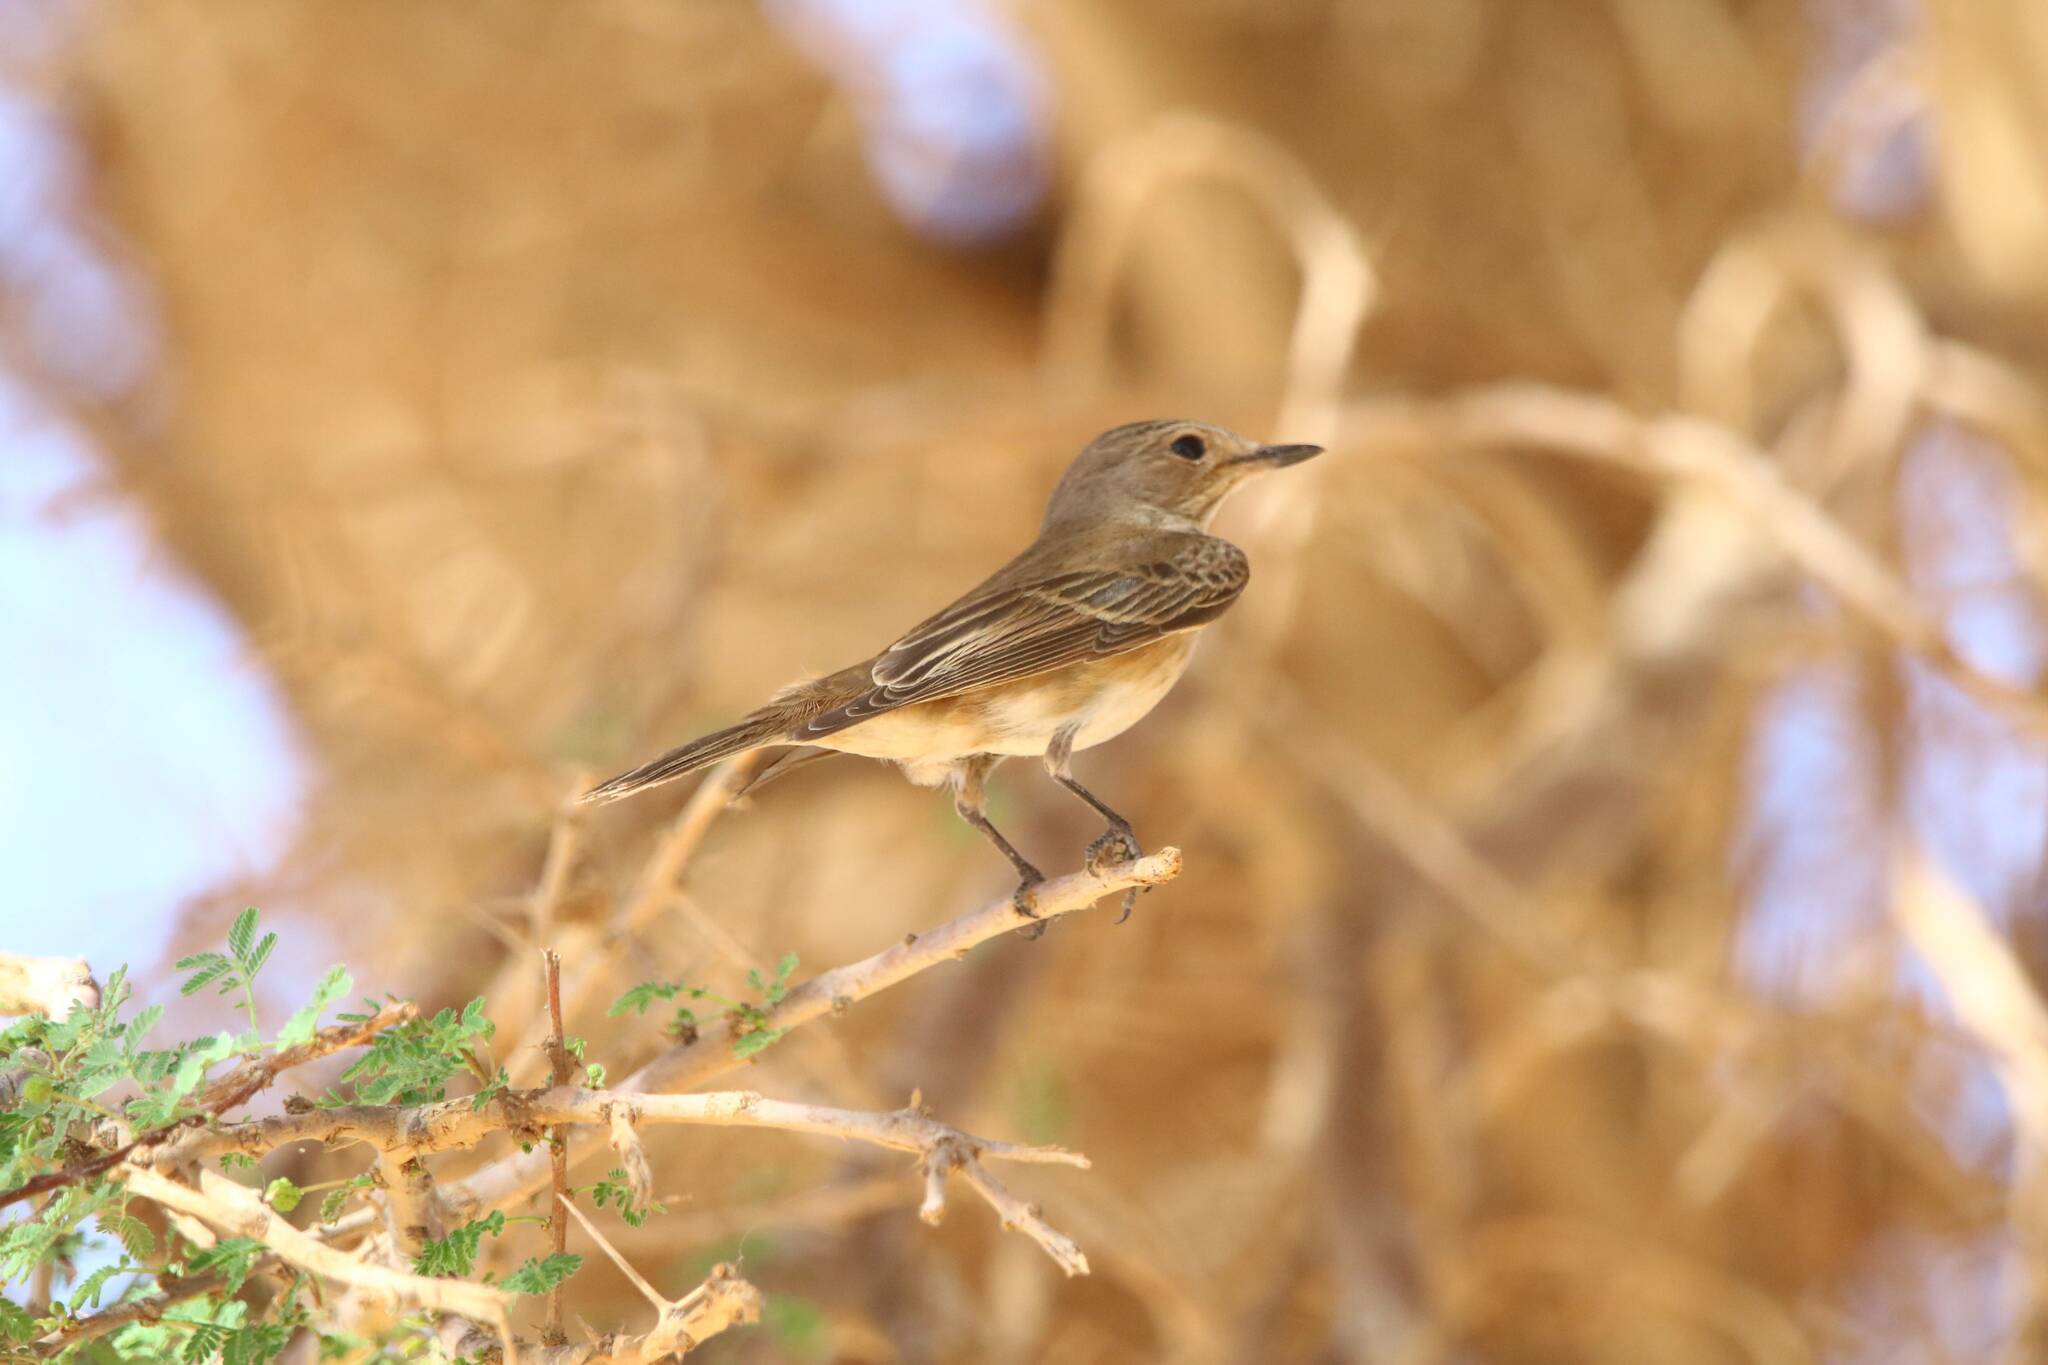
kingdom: Animalia
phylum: Chordata
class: Aves
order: Passeriformes
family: Muscicapidae
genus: Muscicapa
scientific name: Muscicapa striata
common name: Spotted flycatcher
